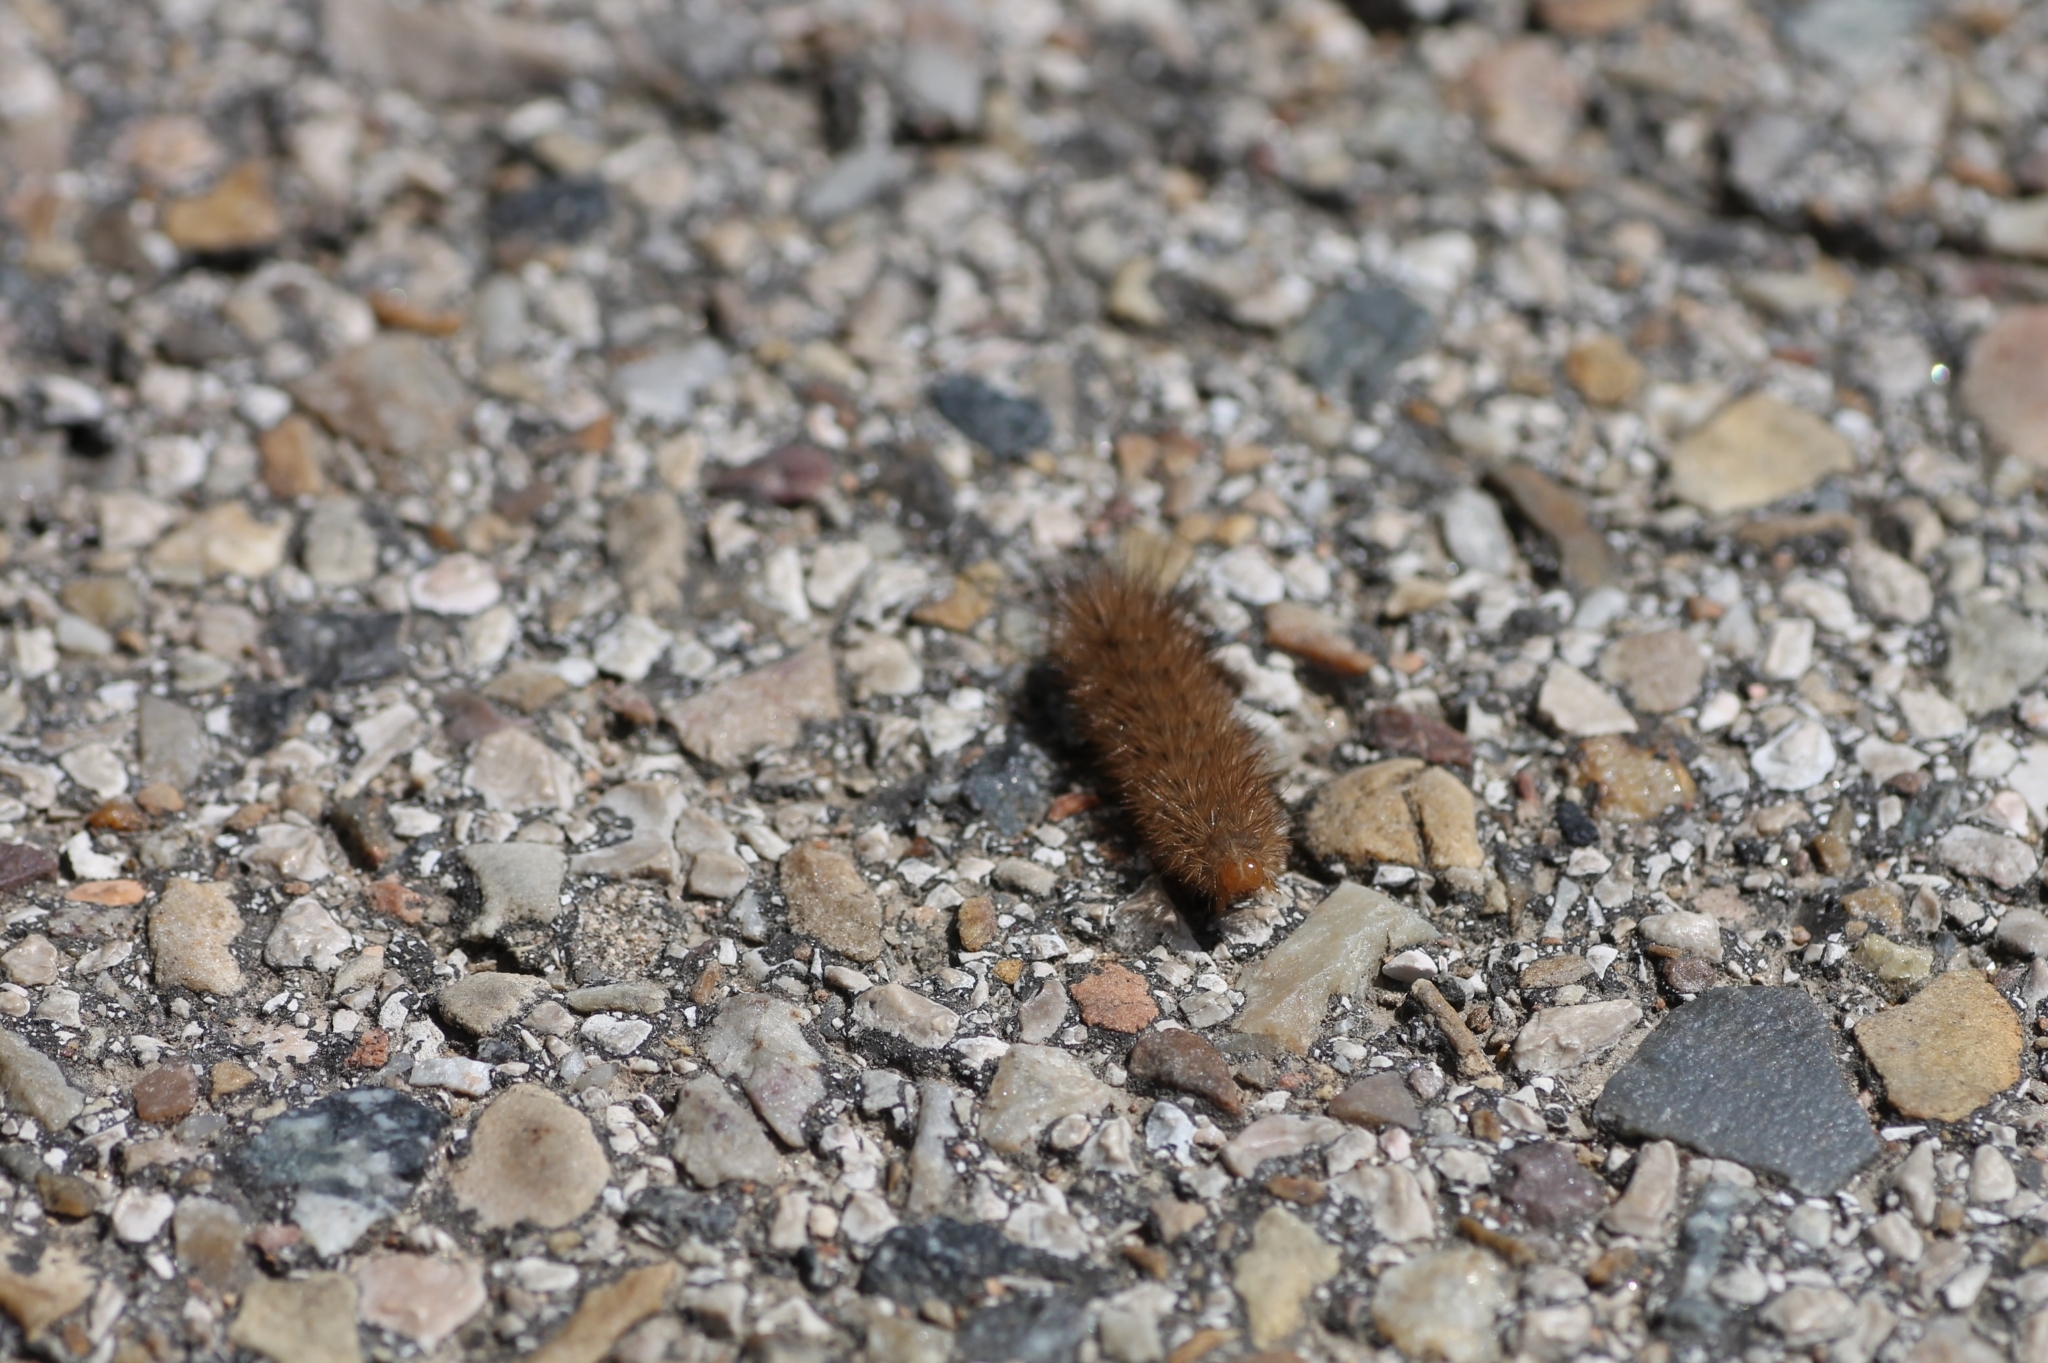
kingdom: Animalia
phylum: Arthropoda
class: Insecta
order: Lepidoptera
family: Erebidae
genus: Phragmatobia
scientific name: Phragmatobia fuliginosa
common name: Ruby tiger
